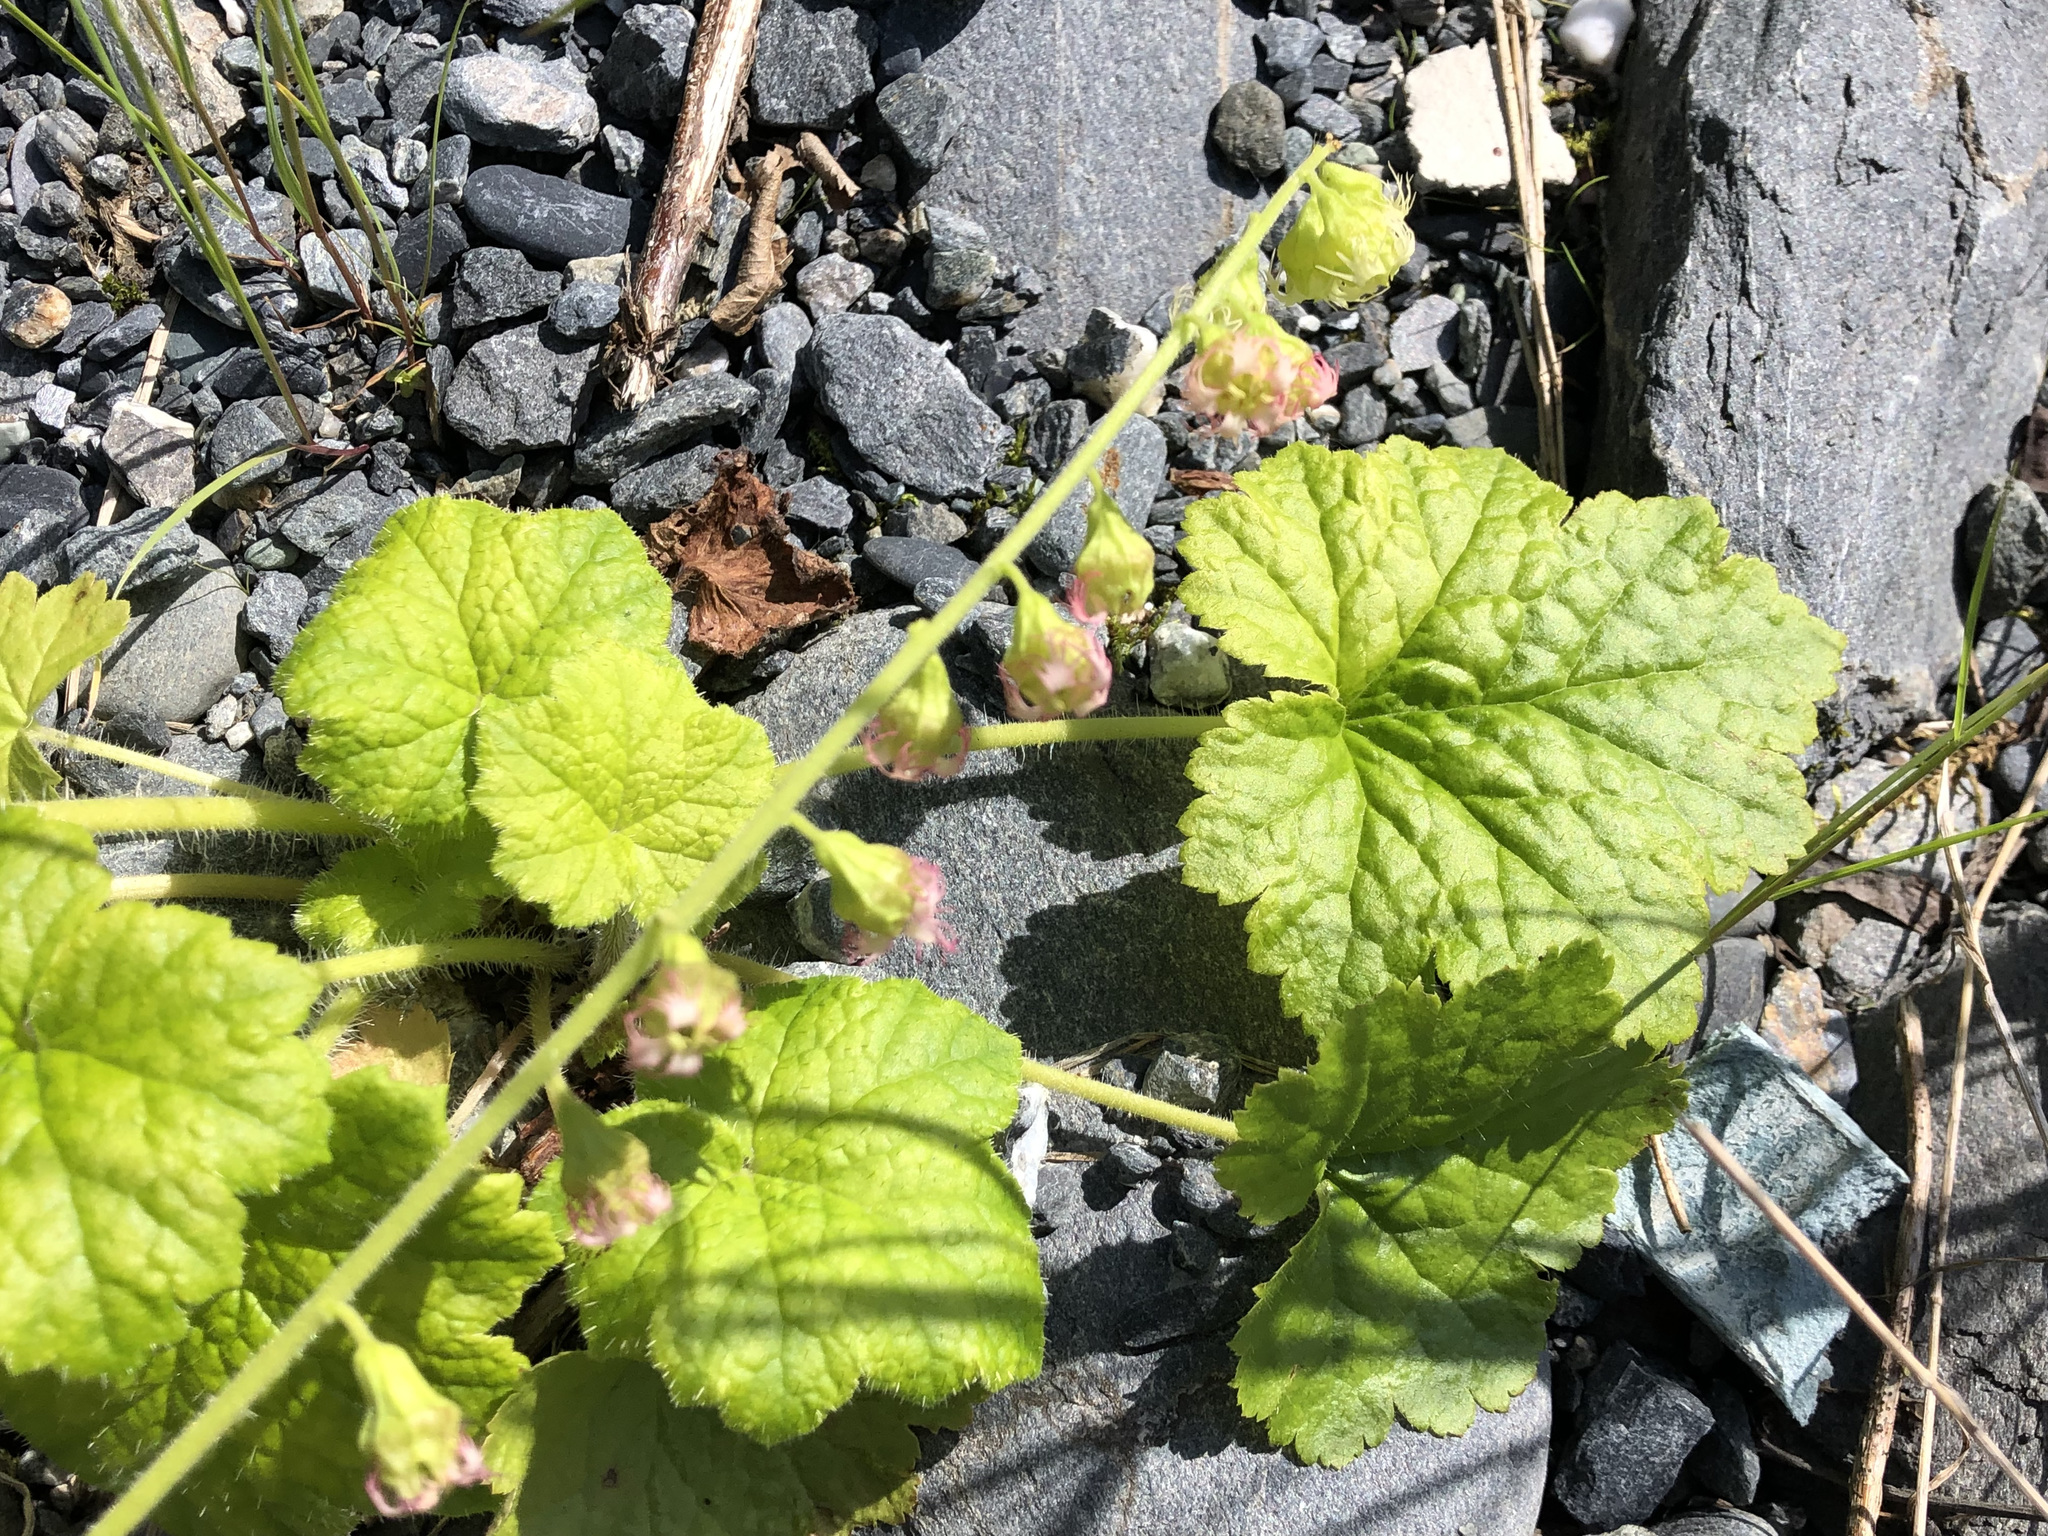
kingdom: Plantae
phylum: Tracheophyta
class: Magnoliopsida
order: Saxifragales
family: Saxifragaceae
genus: Tellima
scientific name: Tellima grandiflora
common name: Fringecups
